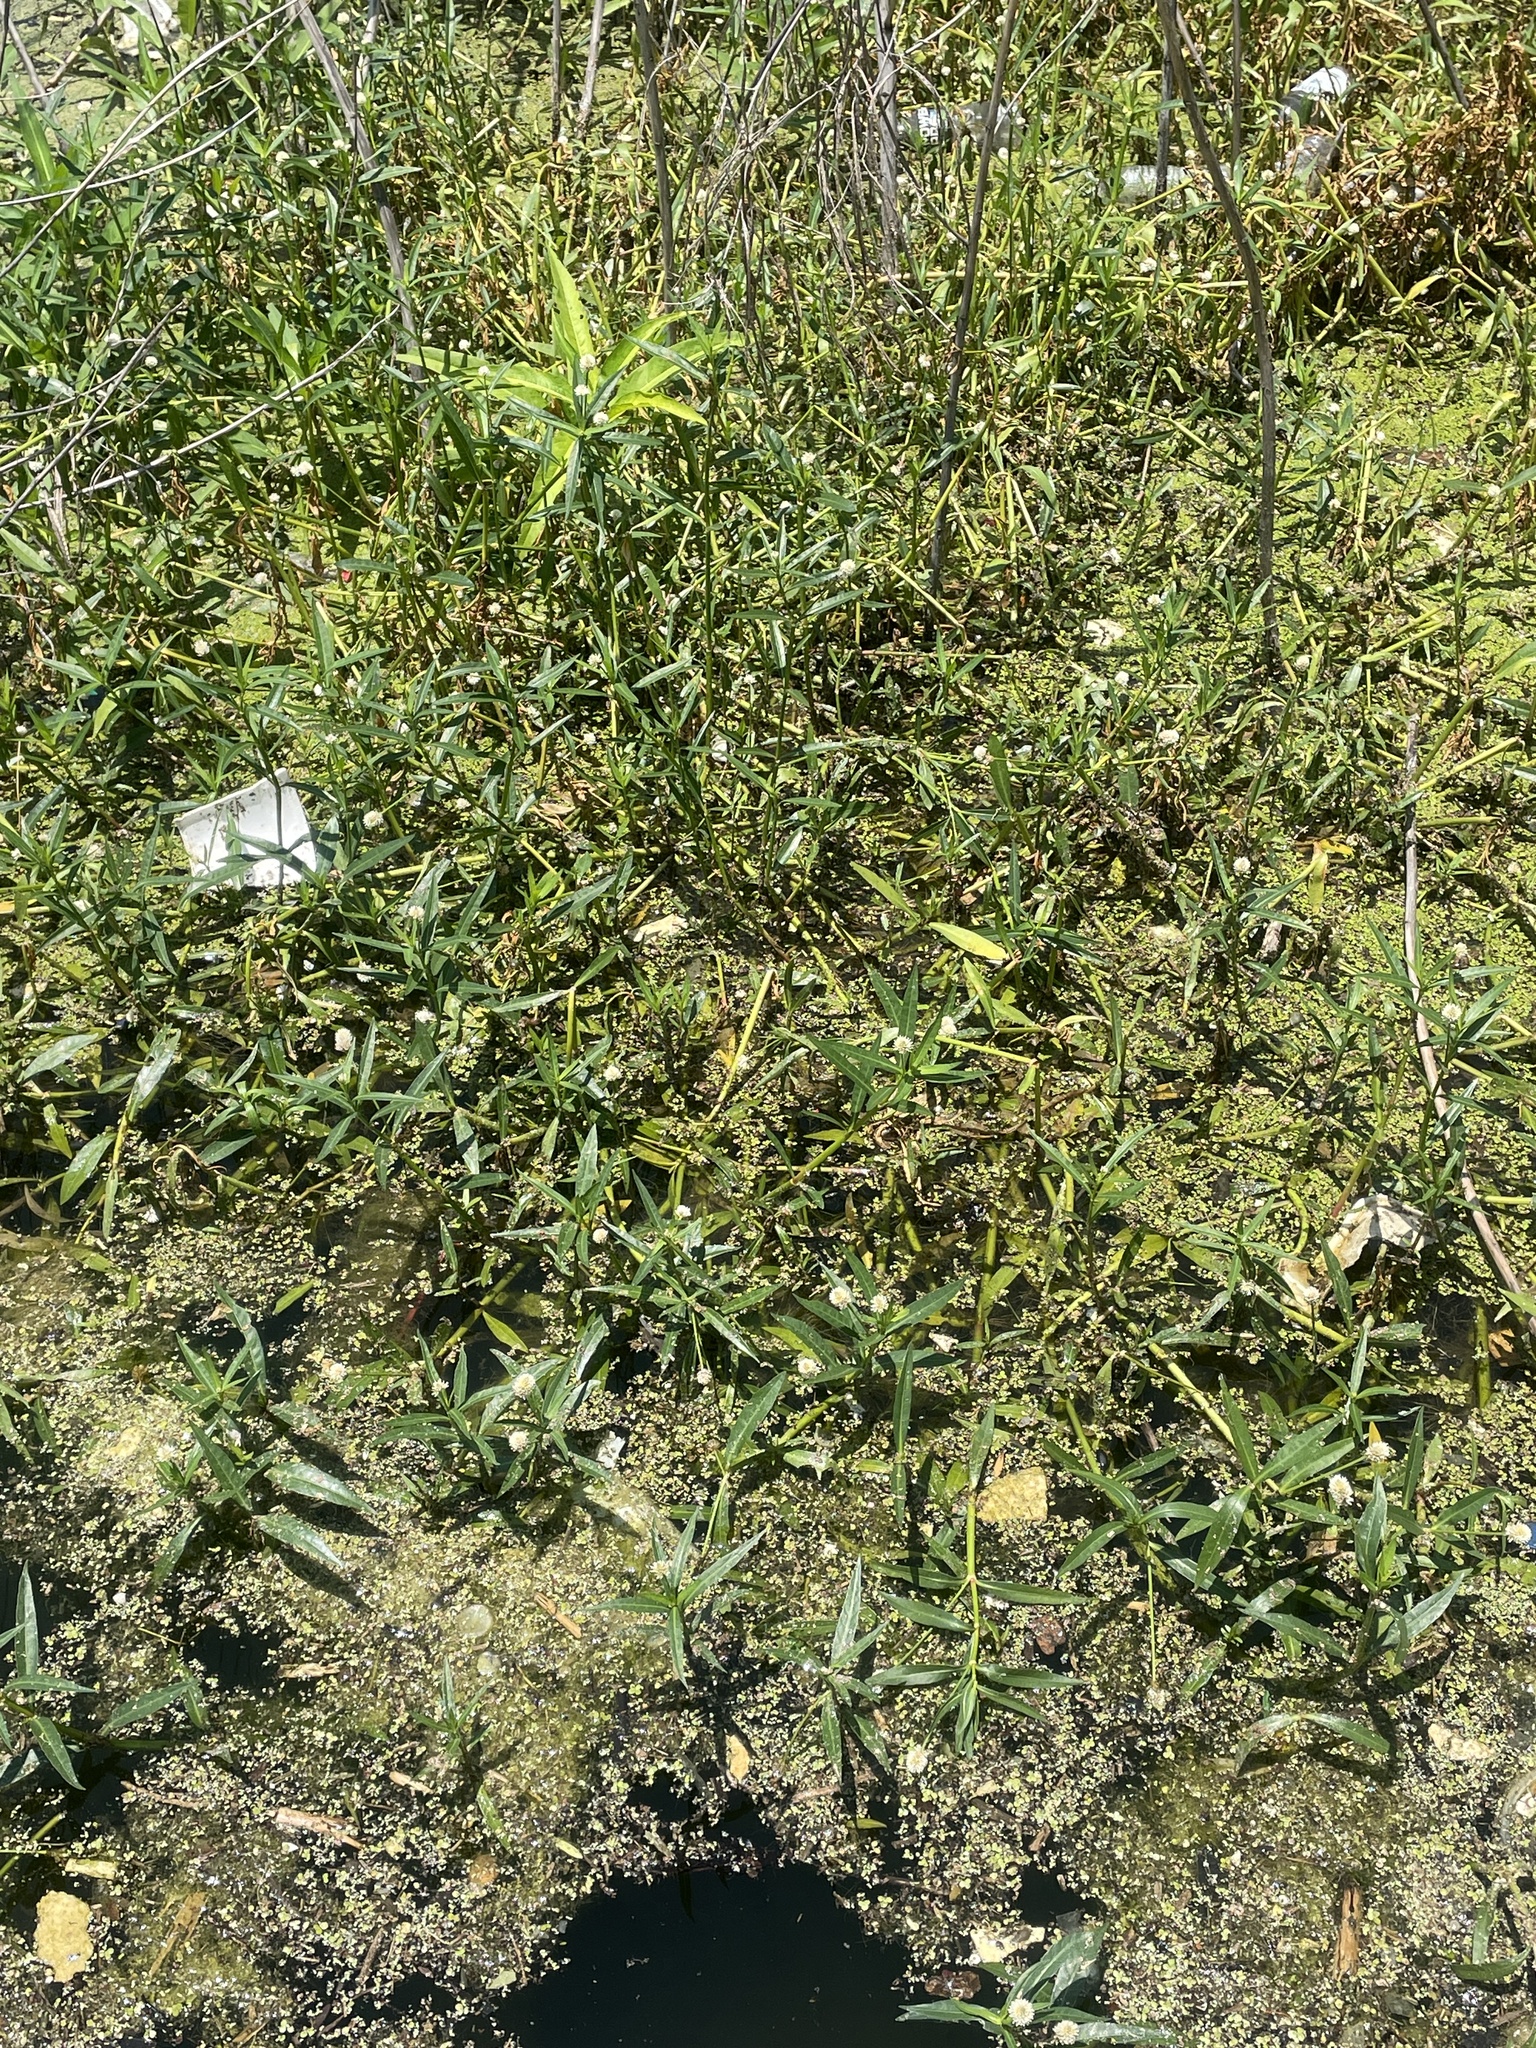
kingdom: Plantae
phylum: Tracheophyta
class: Magnoliopsida
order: Caryophyllales
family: Amaranthaceae
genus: Alternanthera
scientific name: Alternanthera philoxeroides
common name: Alligatorweed
